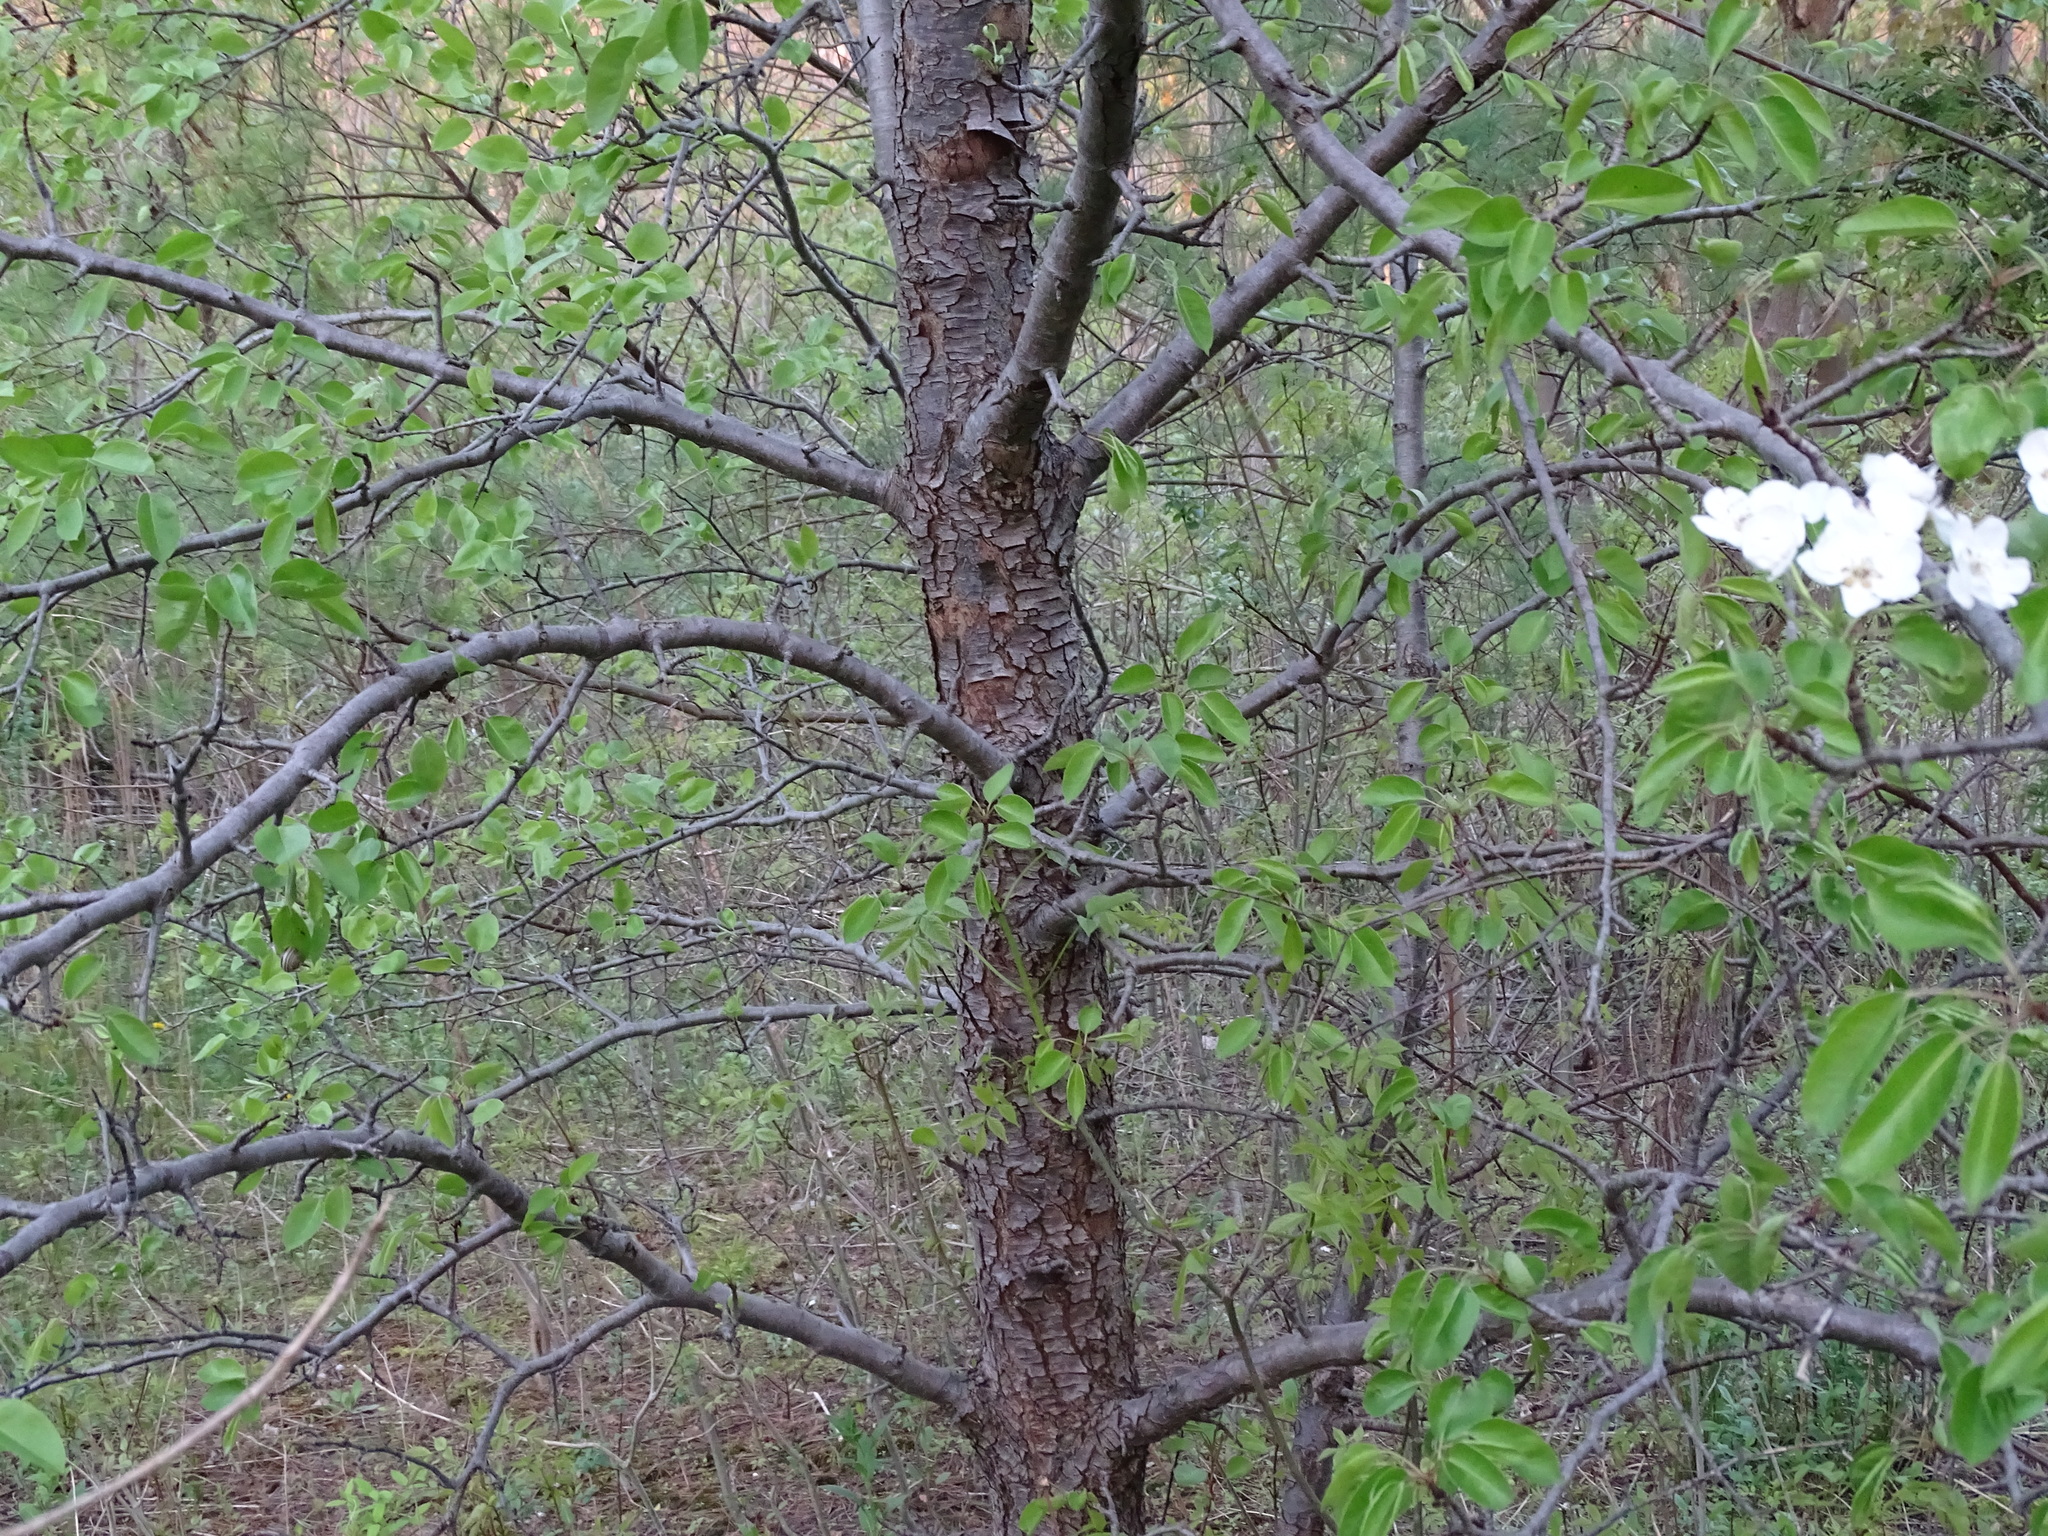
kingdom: Plantae
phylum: Tracheophyta
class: Magnoliopsida
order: Rosales
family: Rosaceae
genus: Pyrus
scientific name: Pyrus communis
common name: Pear
